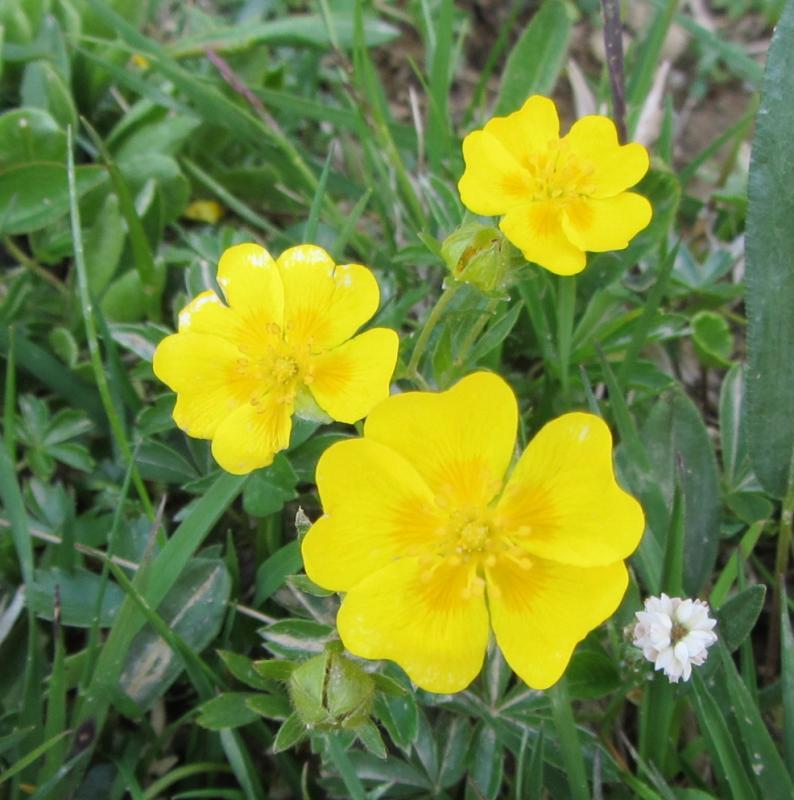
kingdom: Plantae
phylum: Tracheophyta
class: Magnoliopsida
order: Rosales
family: Rosaceae
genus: Potentilla
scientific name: Potentilla aurea
